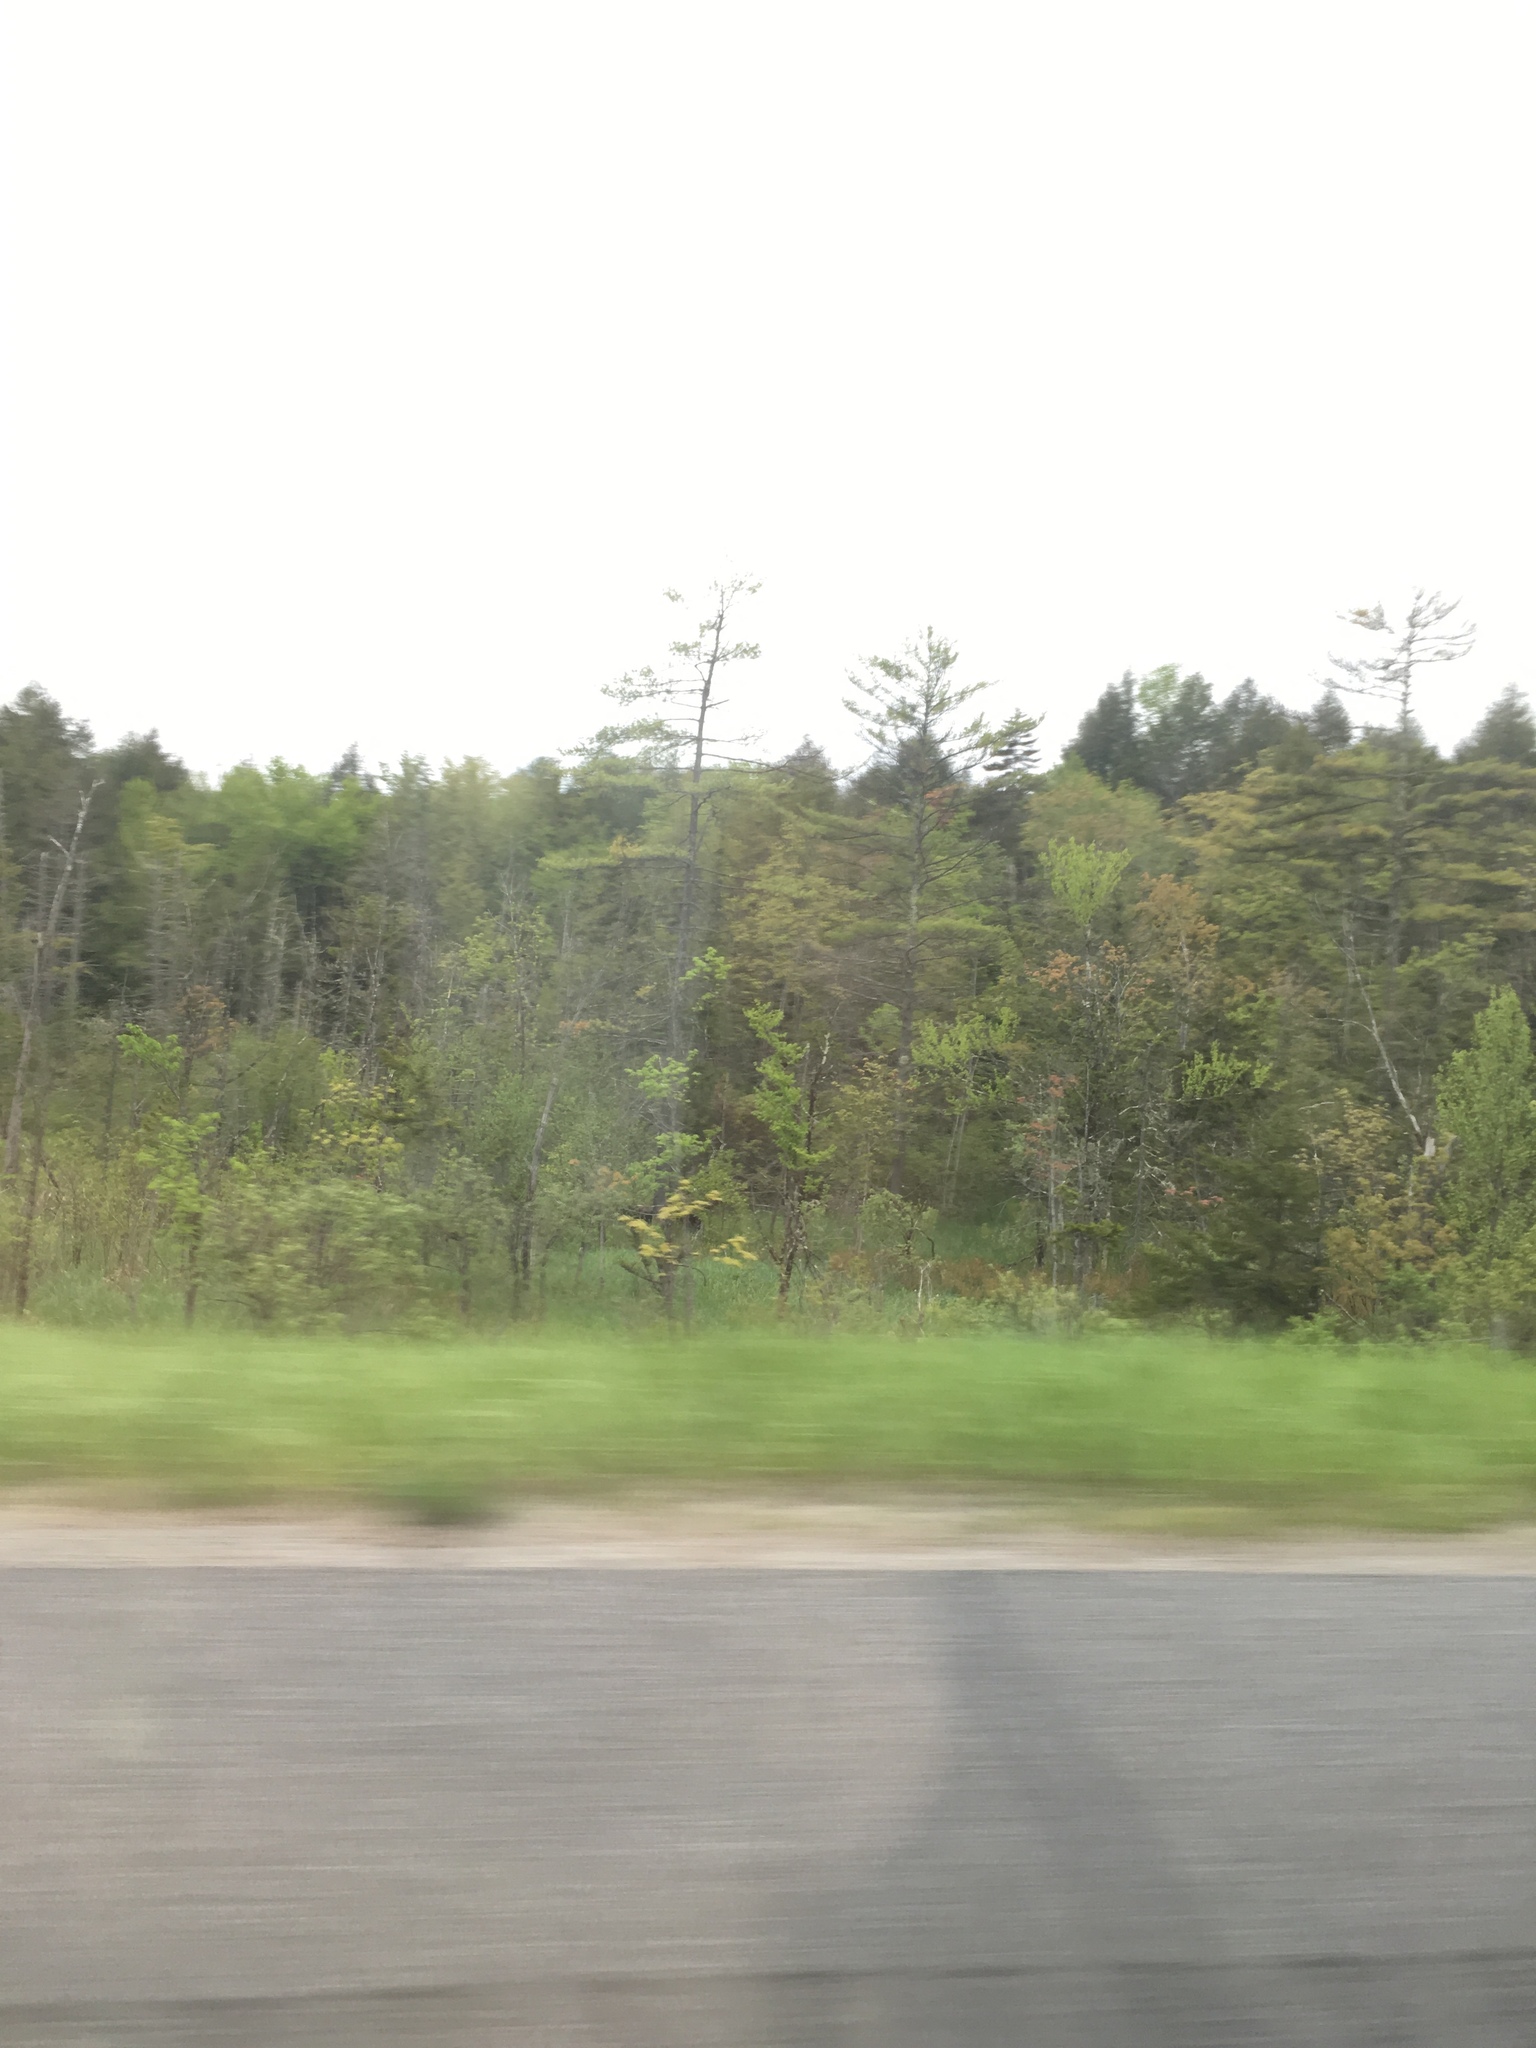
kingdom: Plantae
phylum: Tracheophyta
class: Pinopsida
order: Pinales
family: Pinaceae
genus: Pinus
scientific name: Pinus strobus
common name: Weymouth pine
